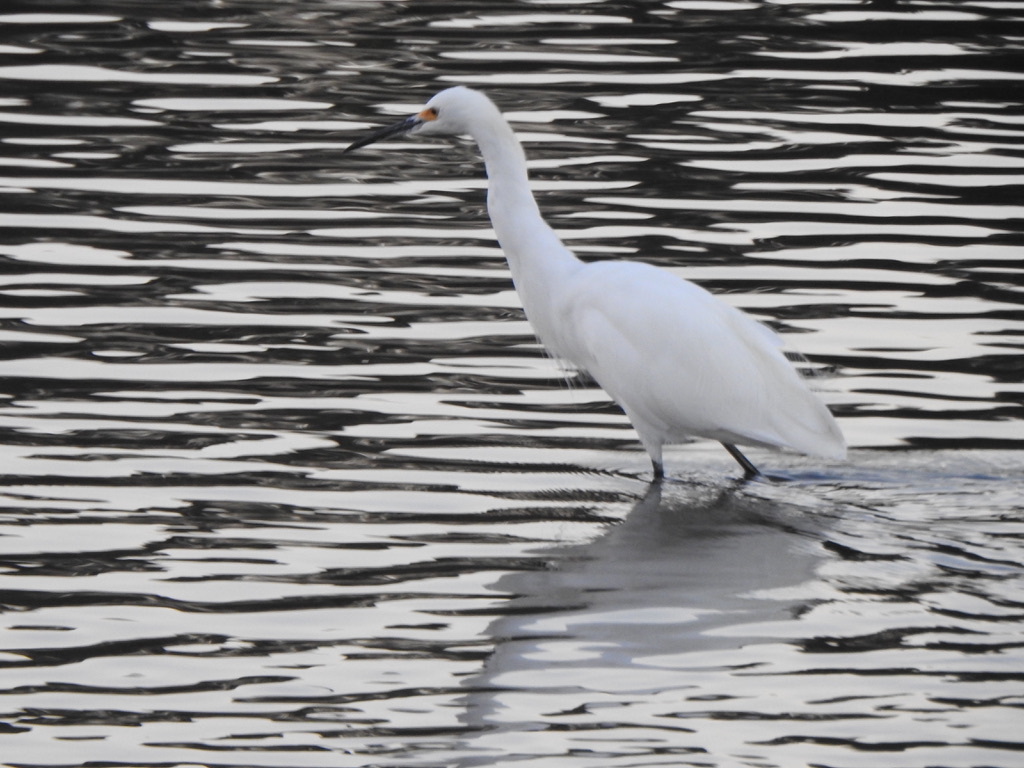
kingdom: Animalia
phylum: Chordata
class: Aves
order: Pelecaniformes
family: Ardeidae
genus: Egretta
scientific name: Egretta thula
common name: Snowy egret
